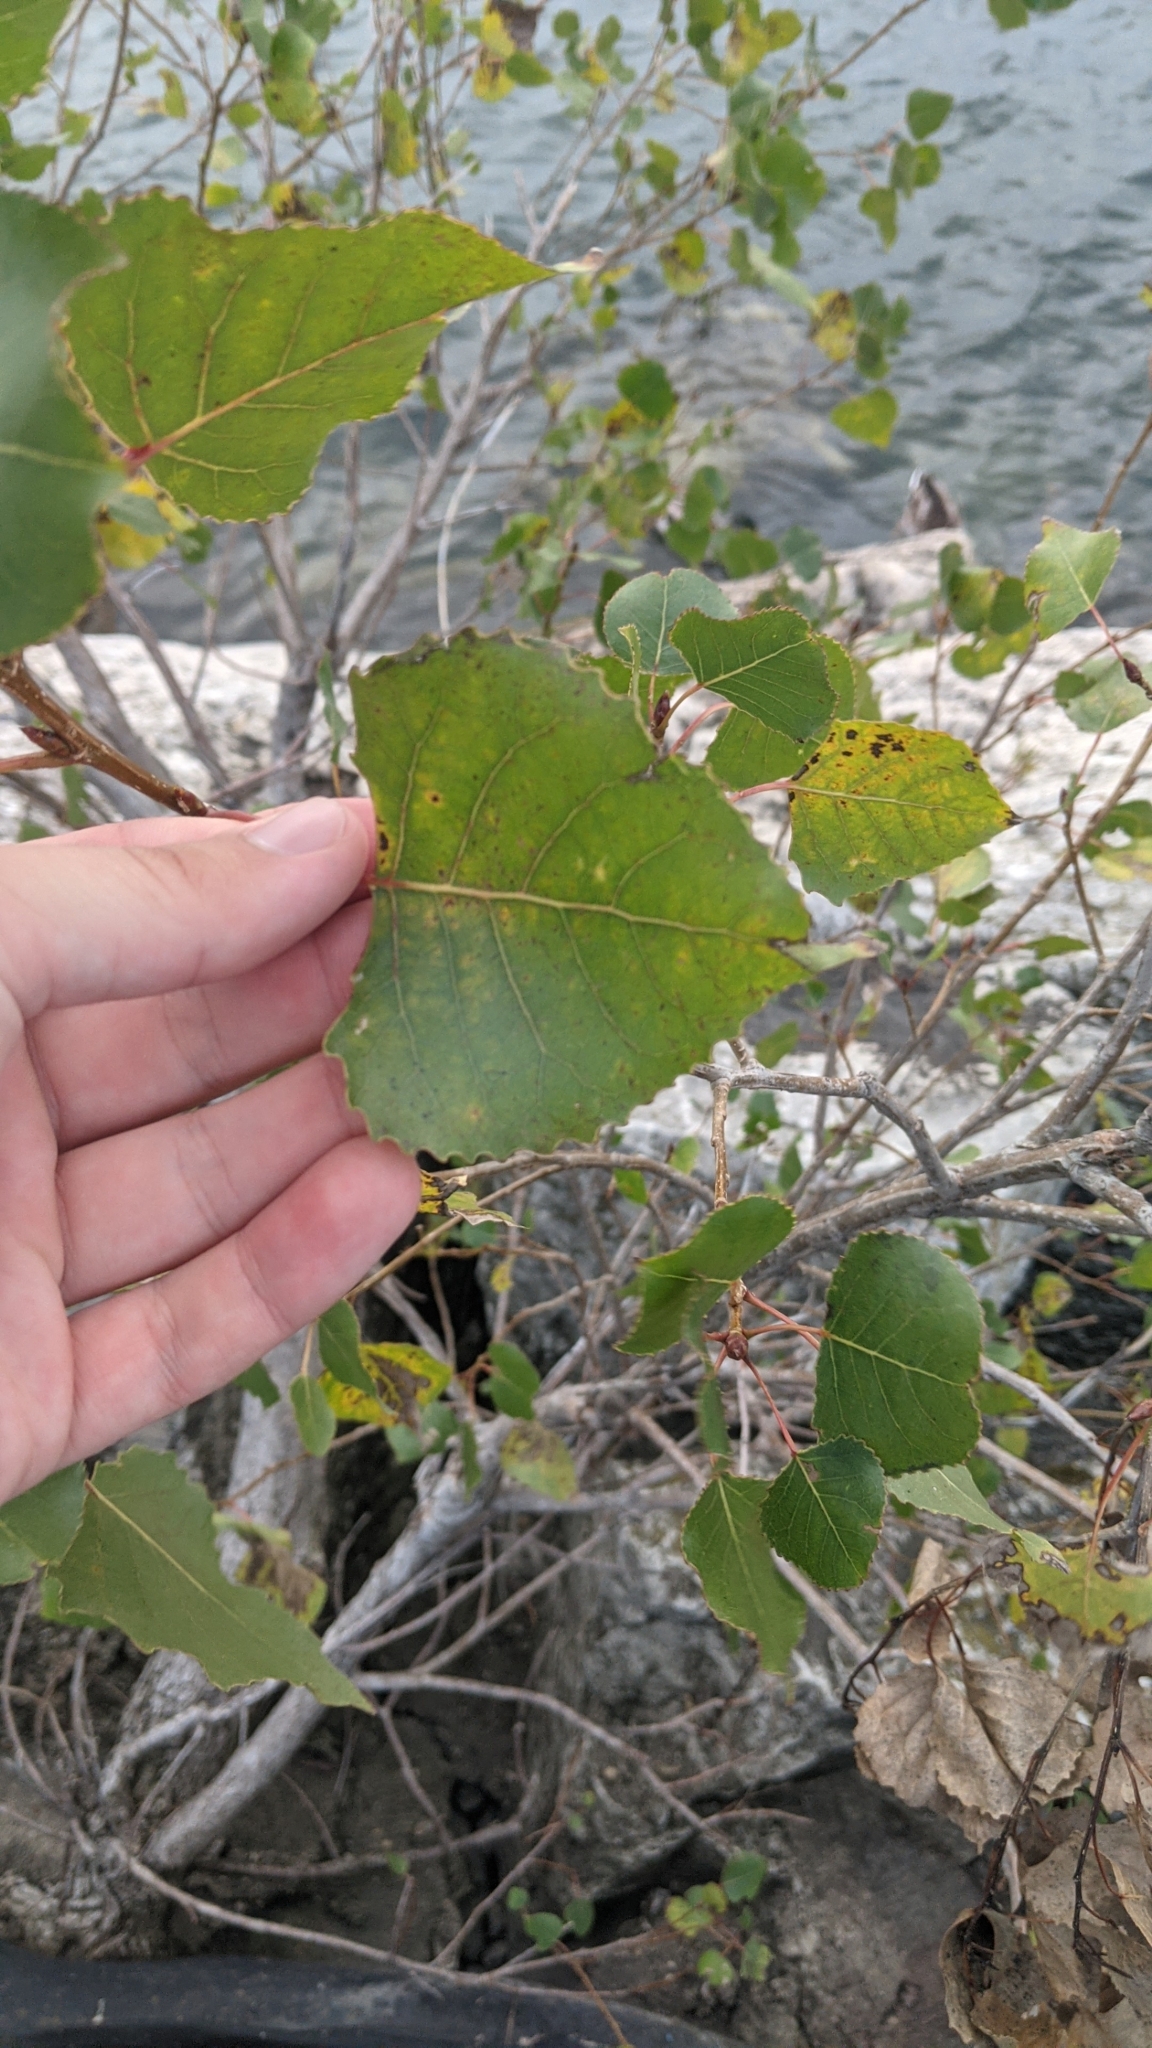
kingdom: Plantae
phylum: Tracheophyta
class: Magnoliopsida
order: Malpighiales
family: Salicaceae
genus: Populus
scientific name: Populus deltoides
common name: Eastern cottonwood
